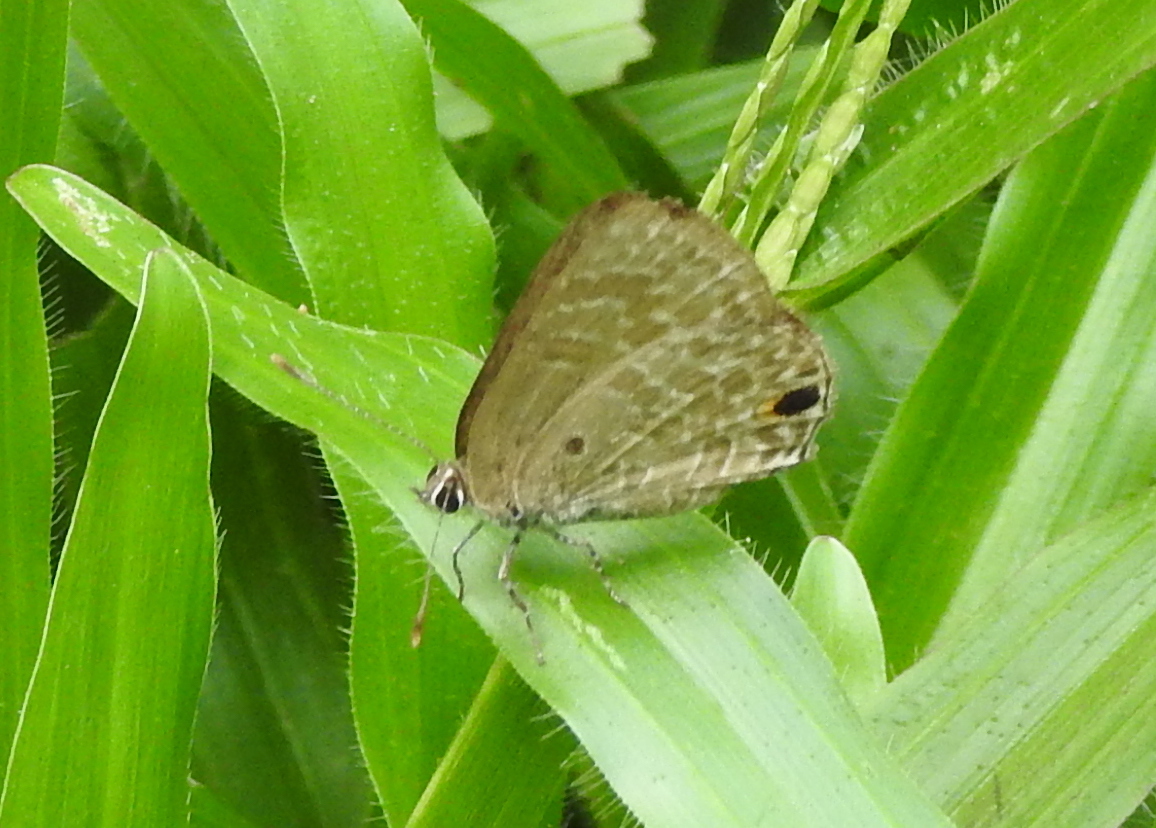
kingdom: Animalia
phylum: Arthropoda
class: Insecta
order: Lepidoptera
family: Lycaenidae
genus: Anthene
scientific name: Anthene lycaenina
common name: Pointed ciliate blue
